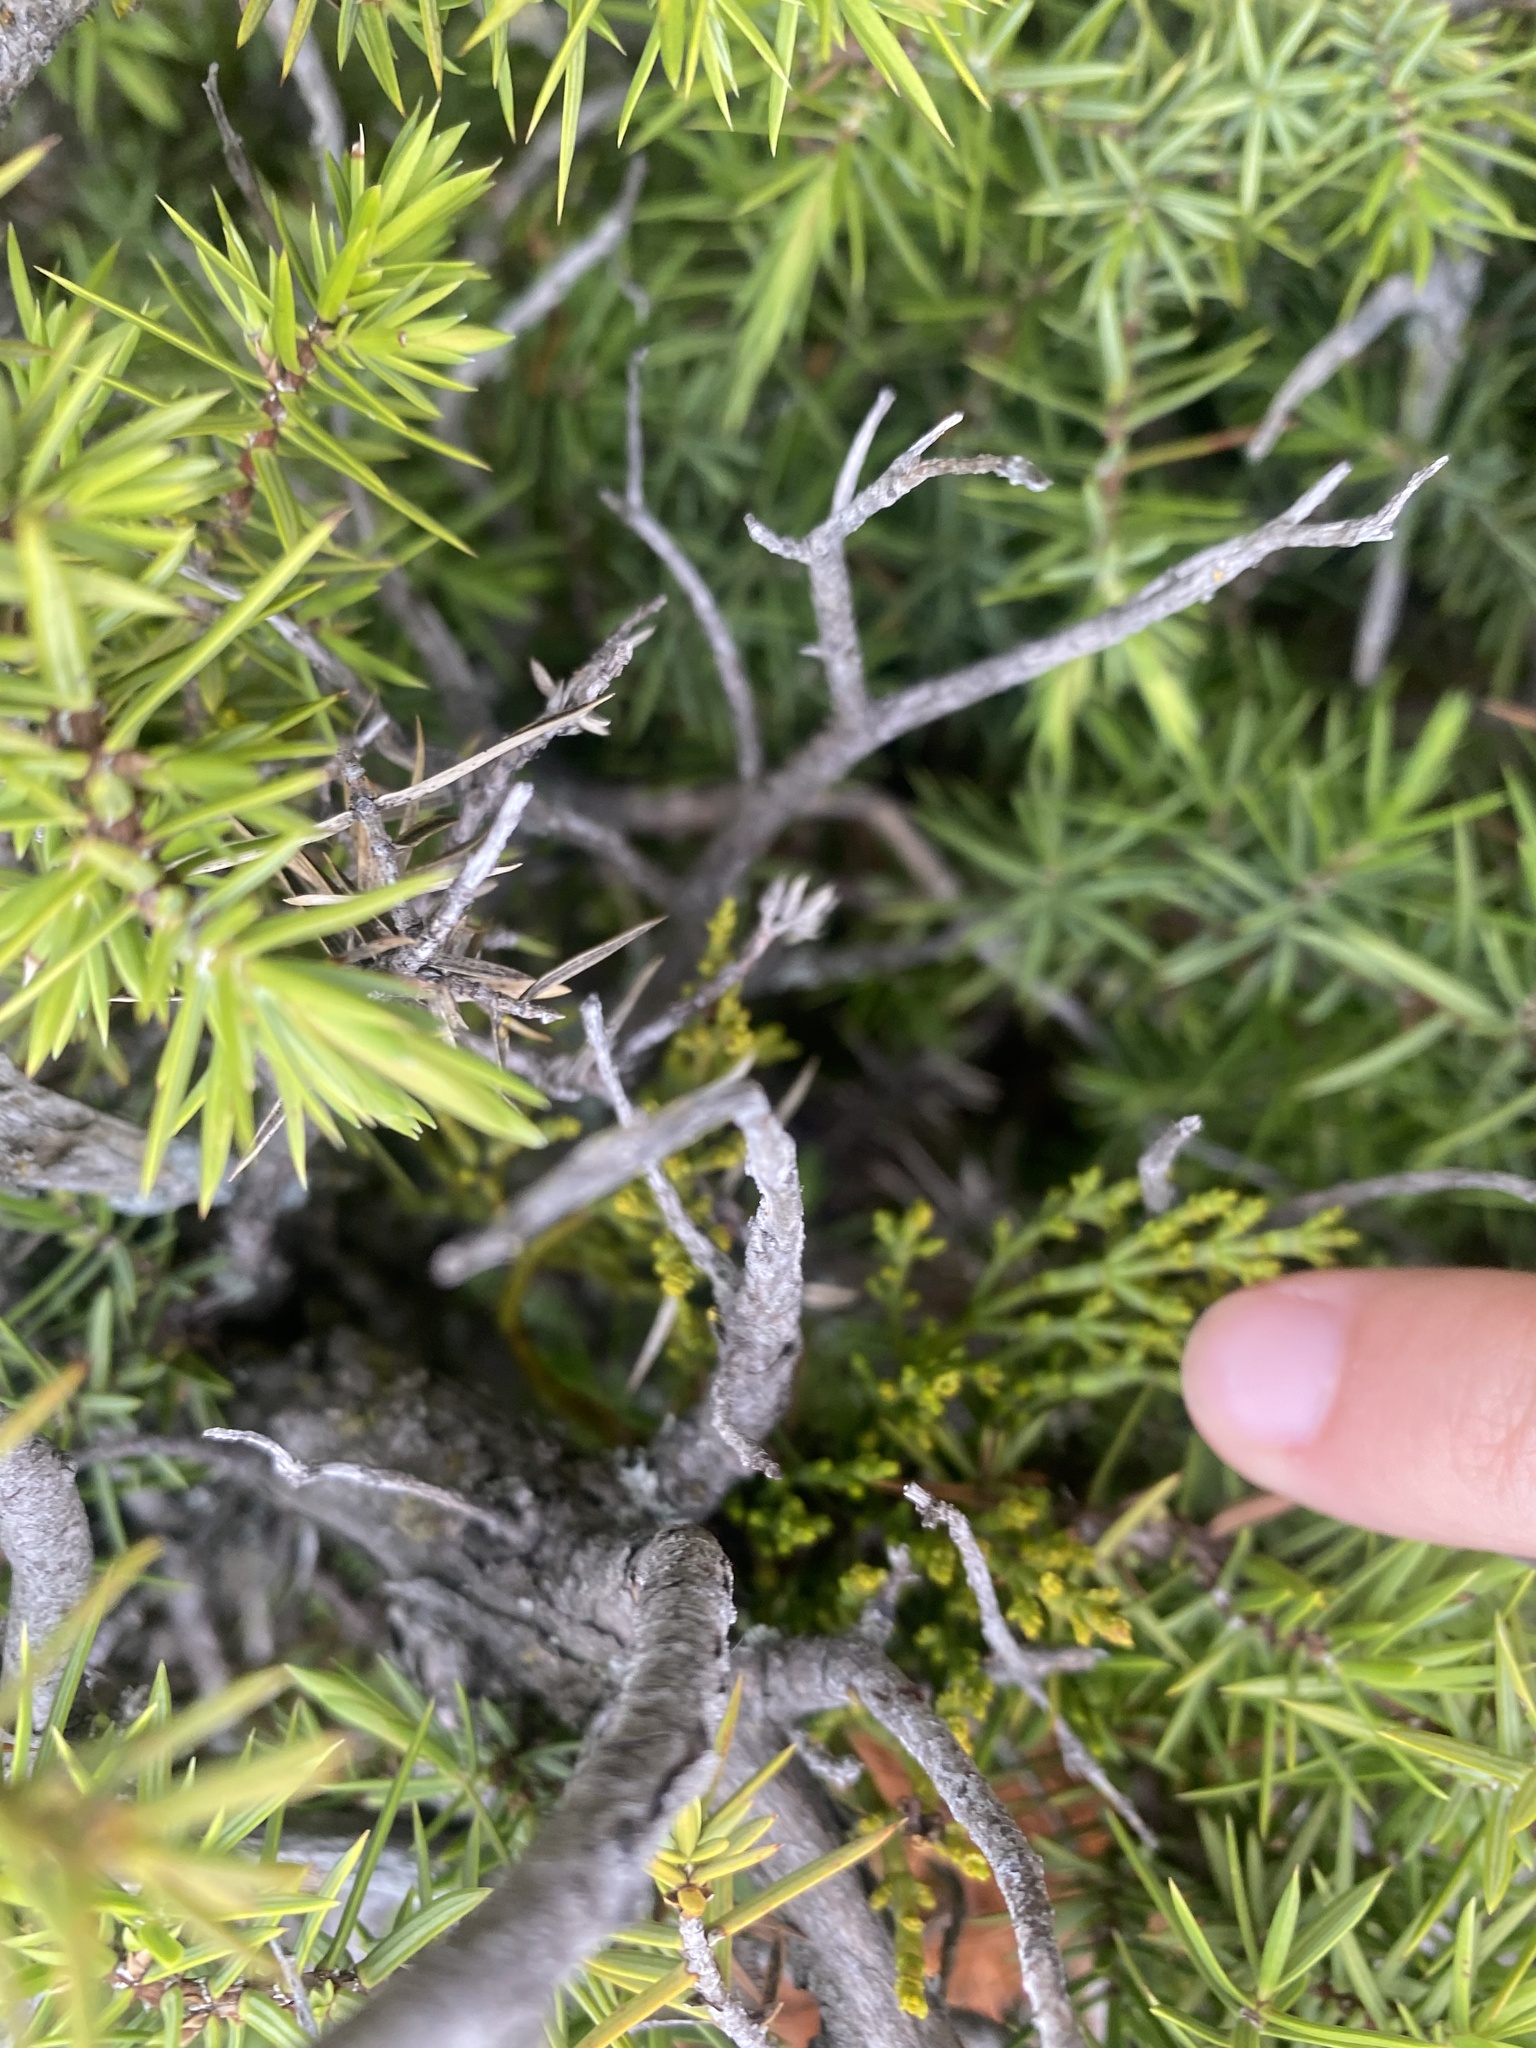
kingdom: Plantae
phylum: Tracheophyta
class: Magnoliopsida
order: Santalales
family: Viscaceae
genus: Arceuthobium
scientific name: Arceuthobium oxycedri
